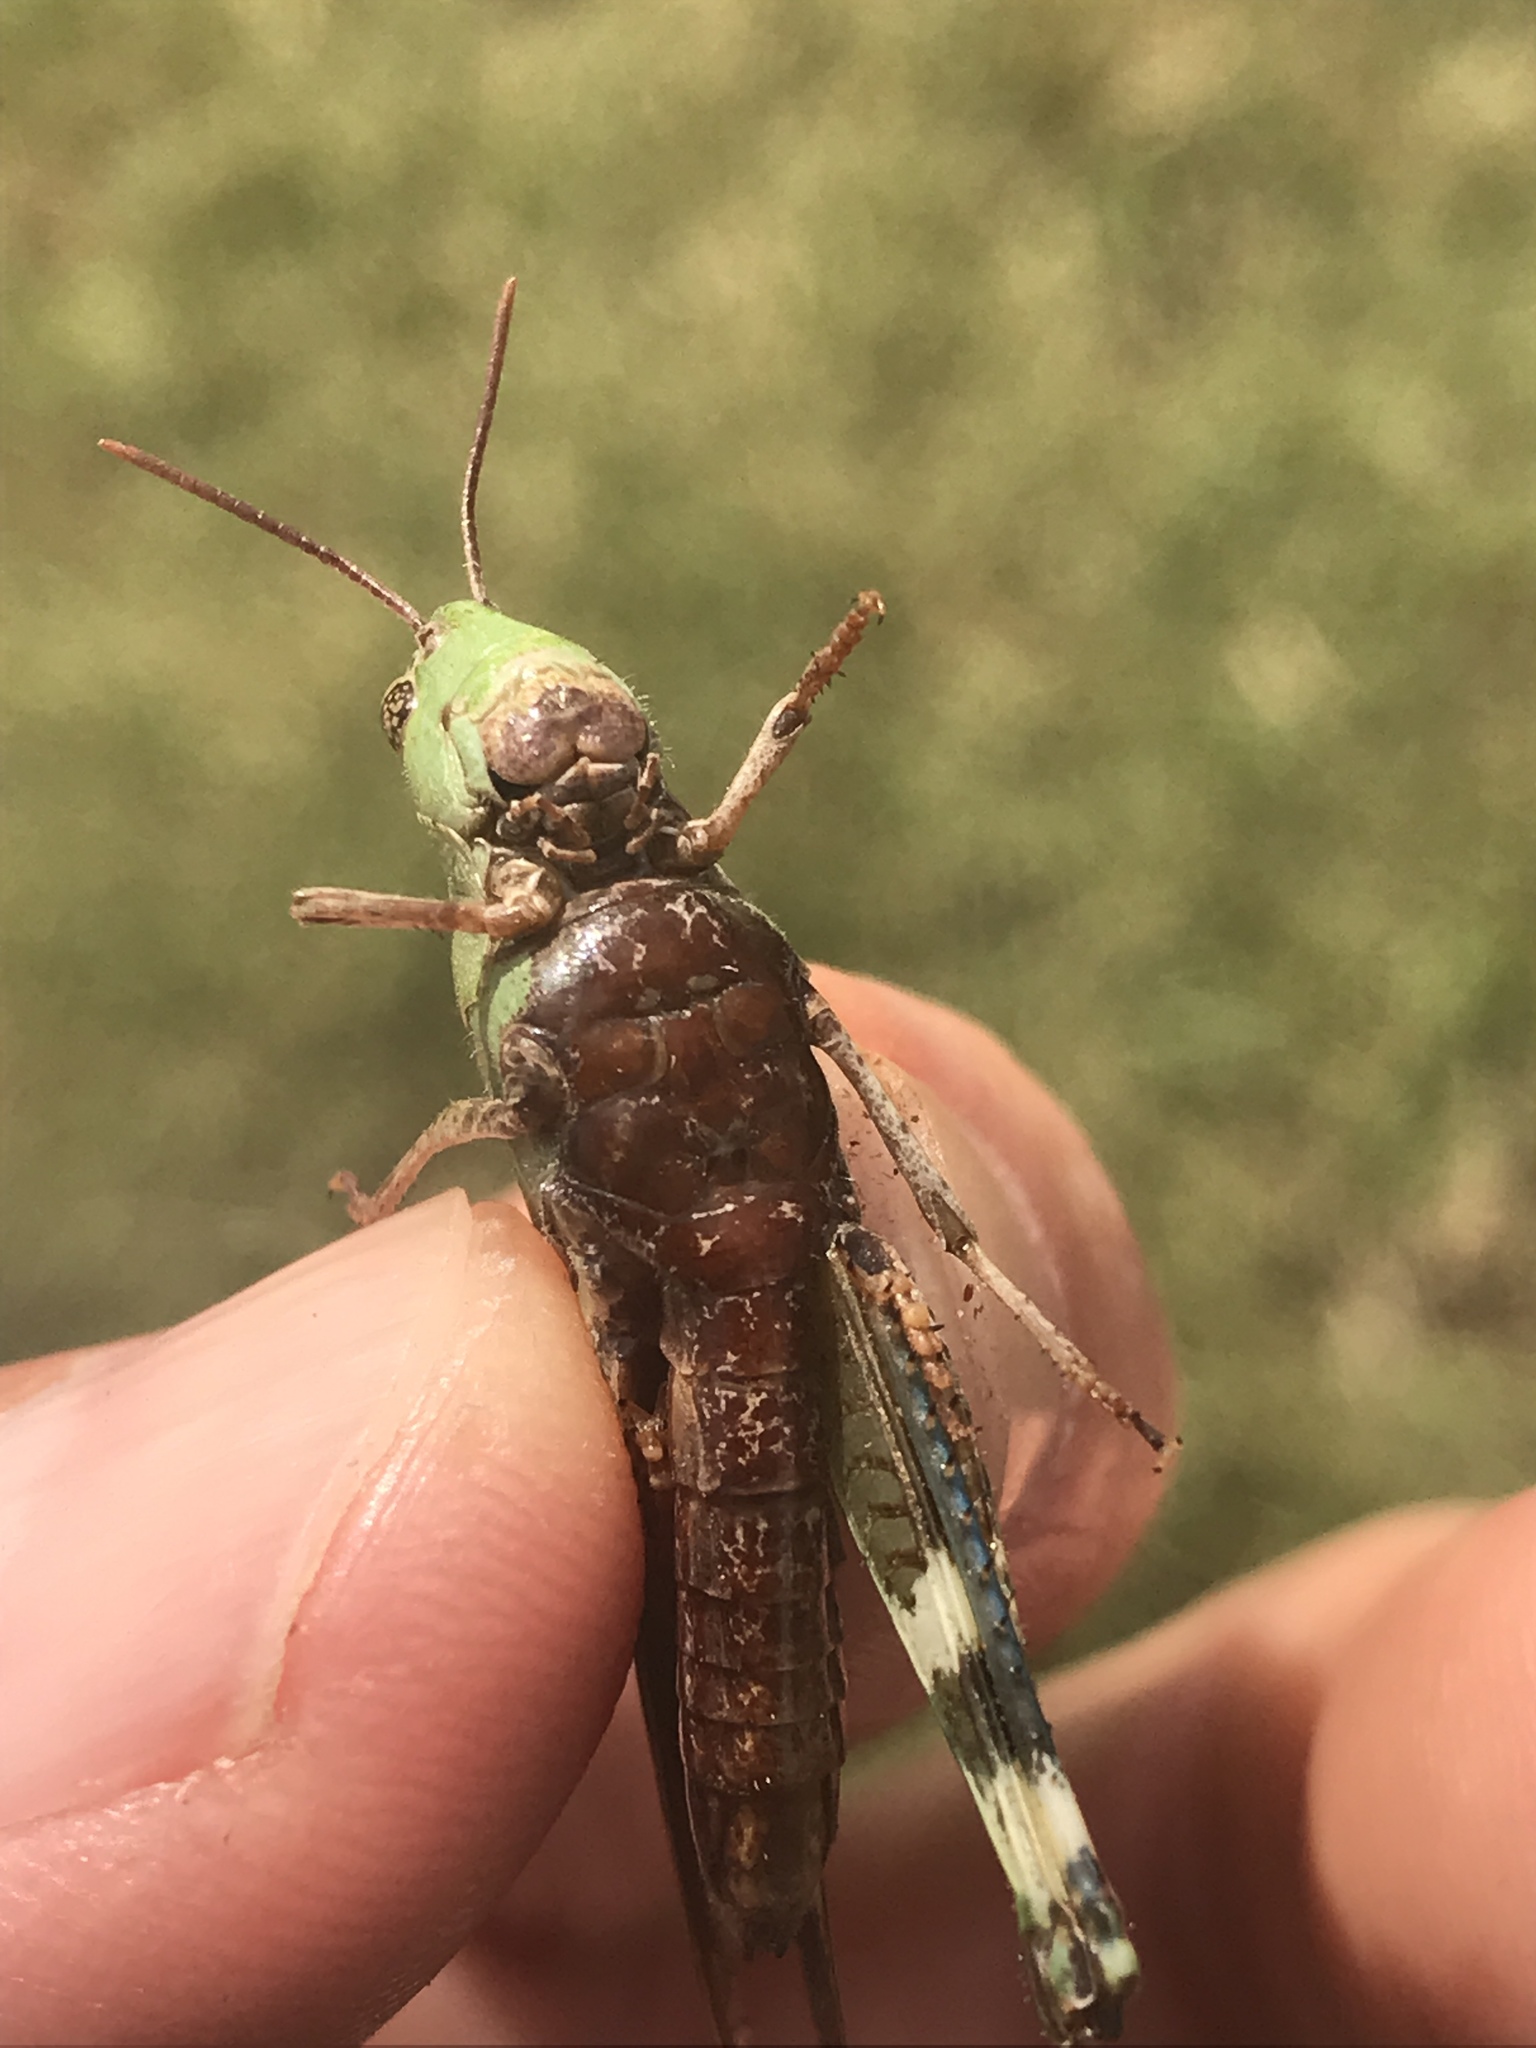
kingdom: Animalia
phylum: Arthropoda
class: Insecta
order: Orthoptera
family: Acrididae
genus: Chortophaga
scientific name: Chortophaga viridifasciata
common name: Green-striped grasshopper
